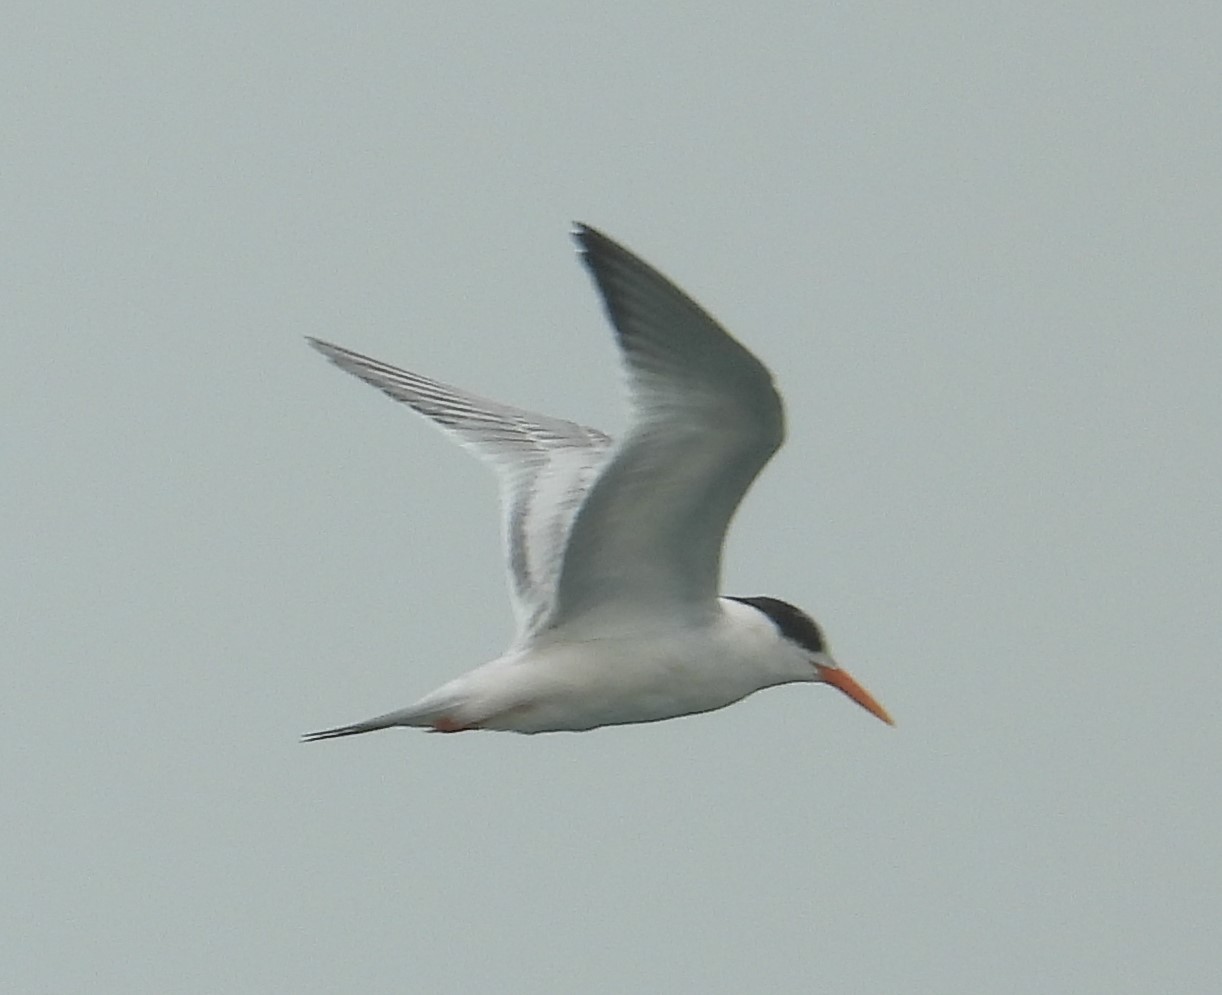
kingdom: Animalia
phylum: Chordata
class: Aves
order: Charadriiformes
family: Laridae
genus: Thalasseus
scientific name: Thalasseus elegans
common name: Elegant tern
